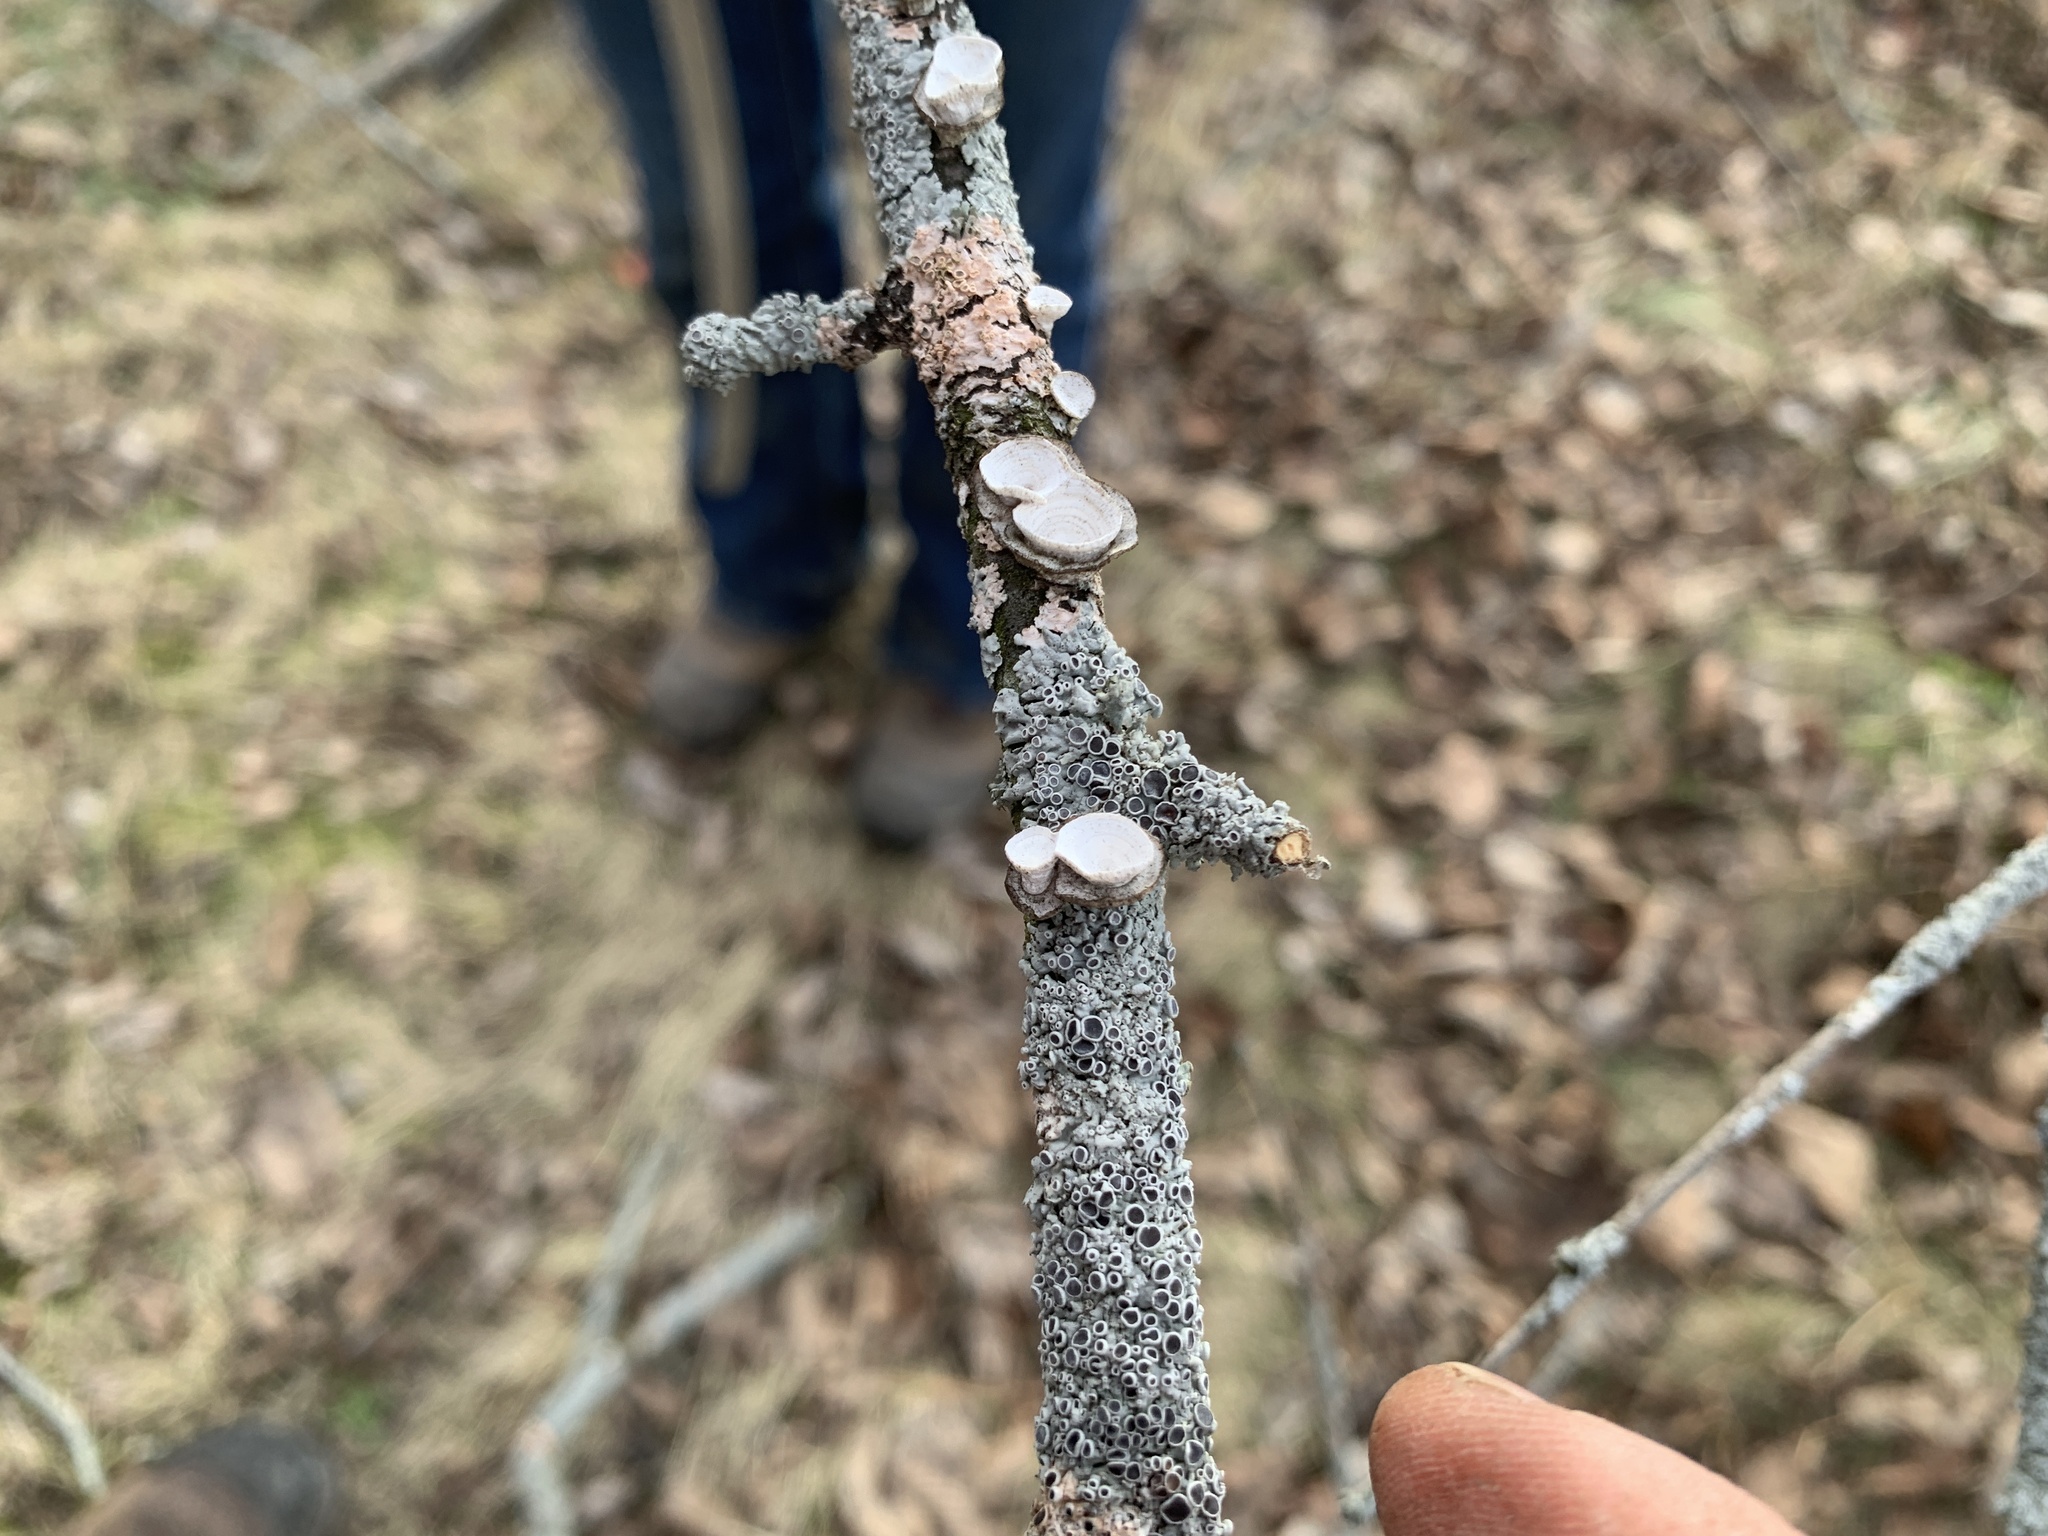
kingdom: Fungi
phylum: Basidiomycota
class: Agaricomycetes
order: Polyporales
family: Polyporaceae
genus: Poronidulus
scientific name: Poronidulus conchifer
